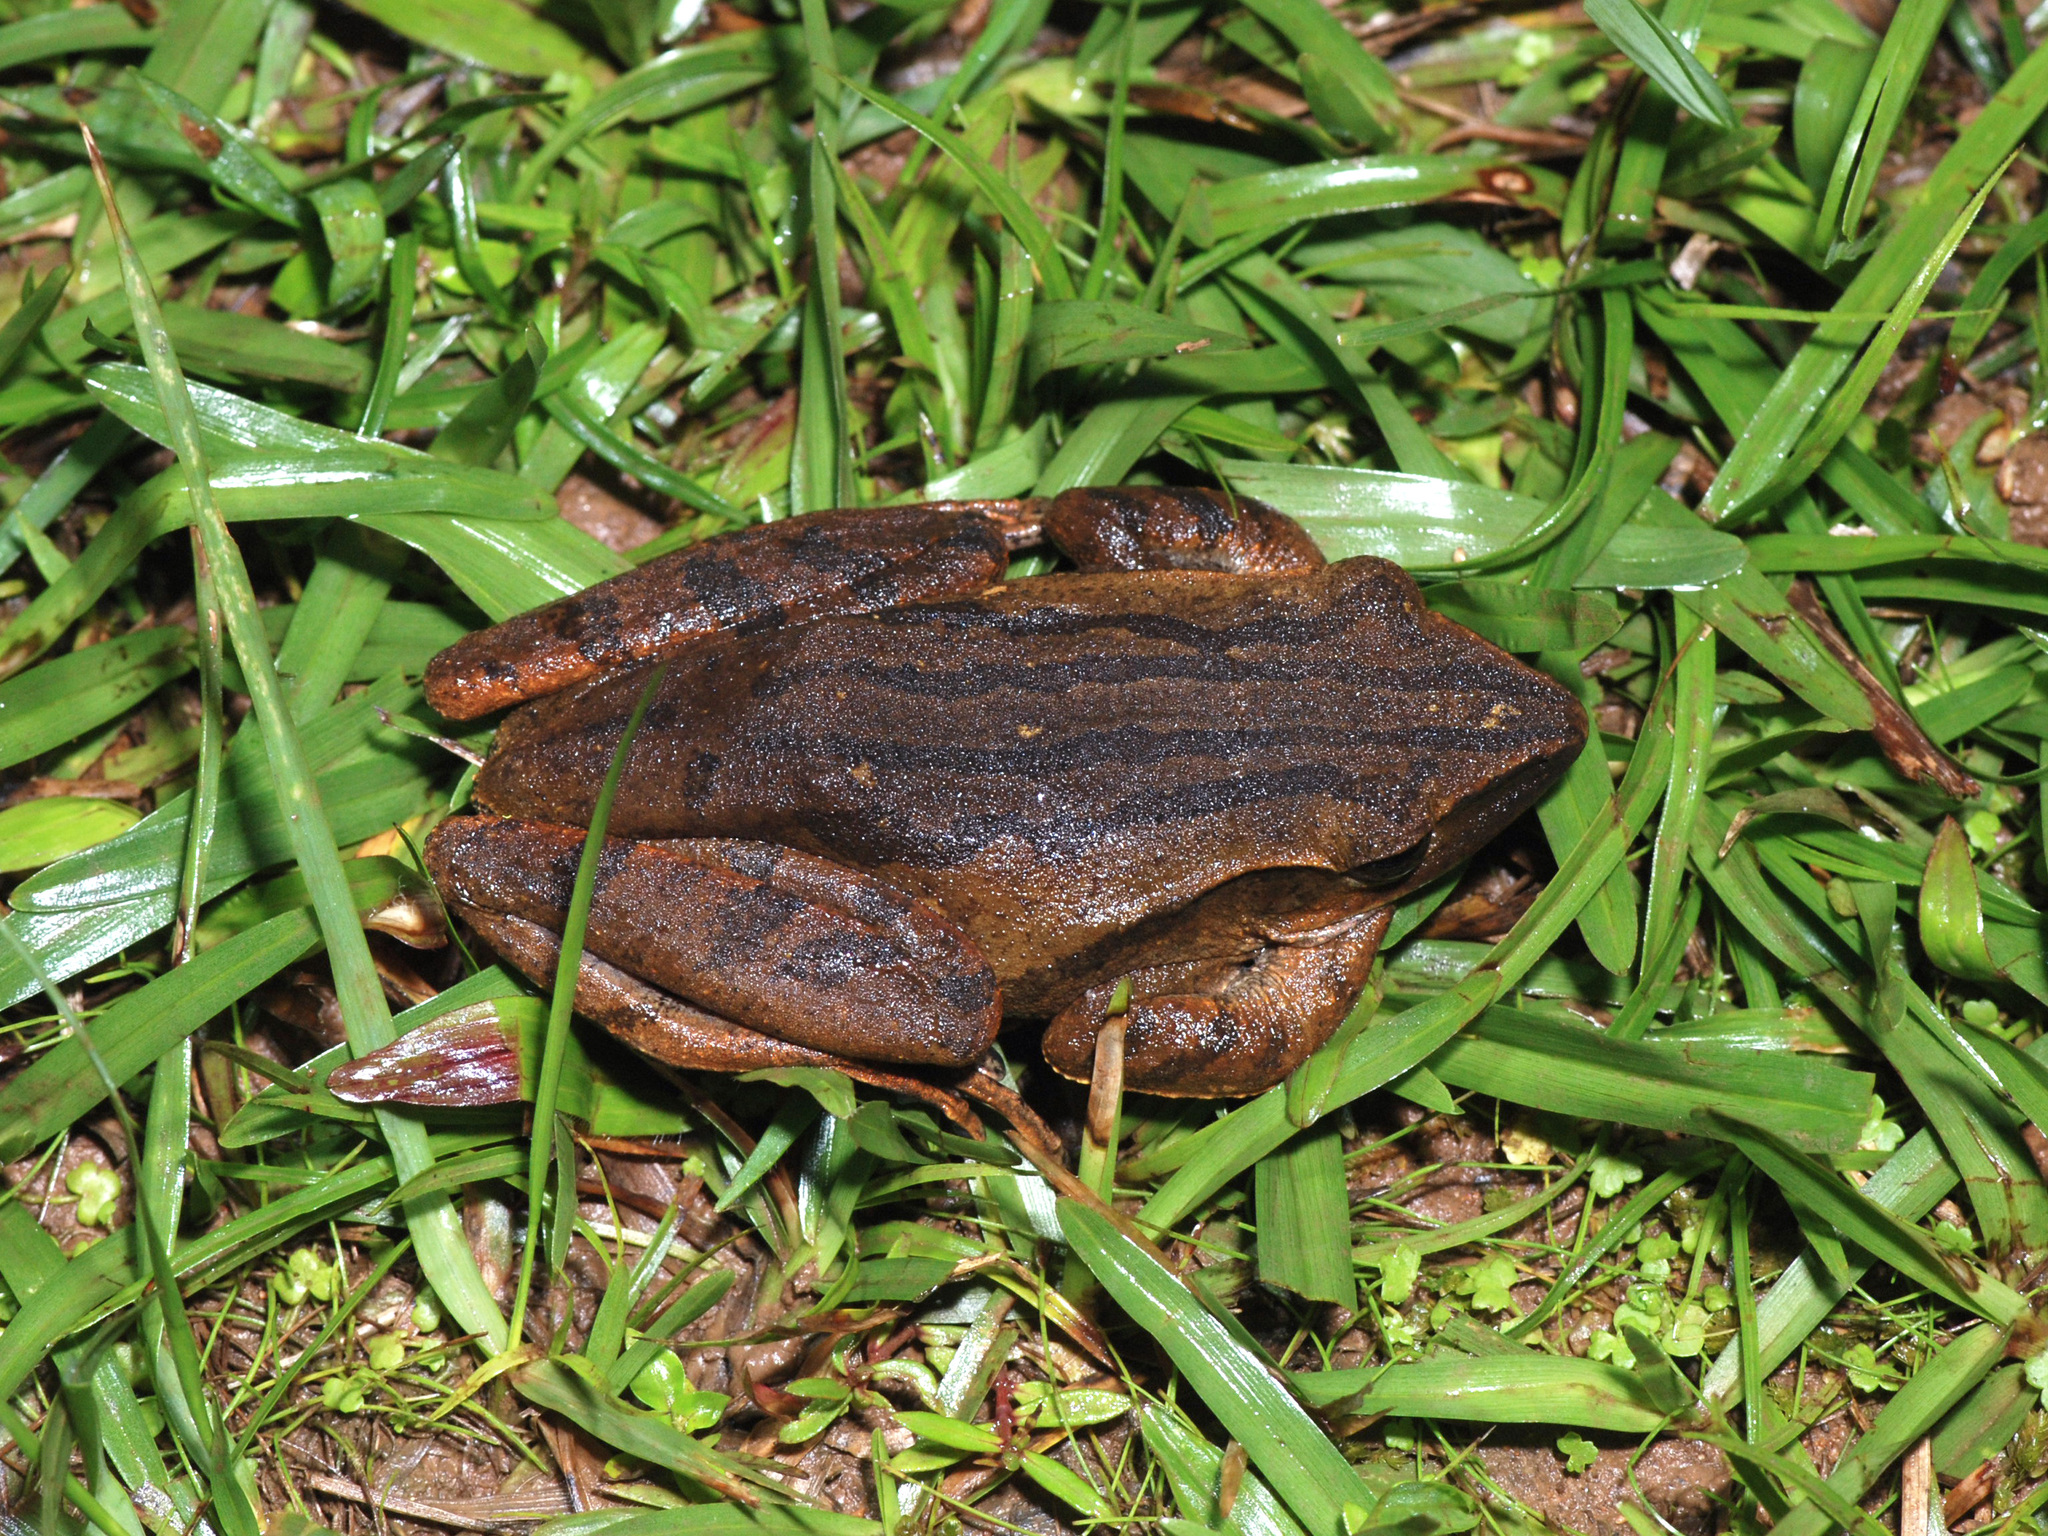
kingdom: Animalia
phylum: Chordata
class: Amphibia
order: Anura
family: Rhacophoridae
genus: Polypedates
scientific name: Polypedates leucomystax
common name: Common tree frog/four-lined tree frog
